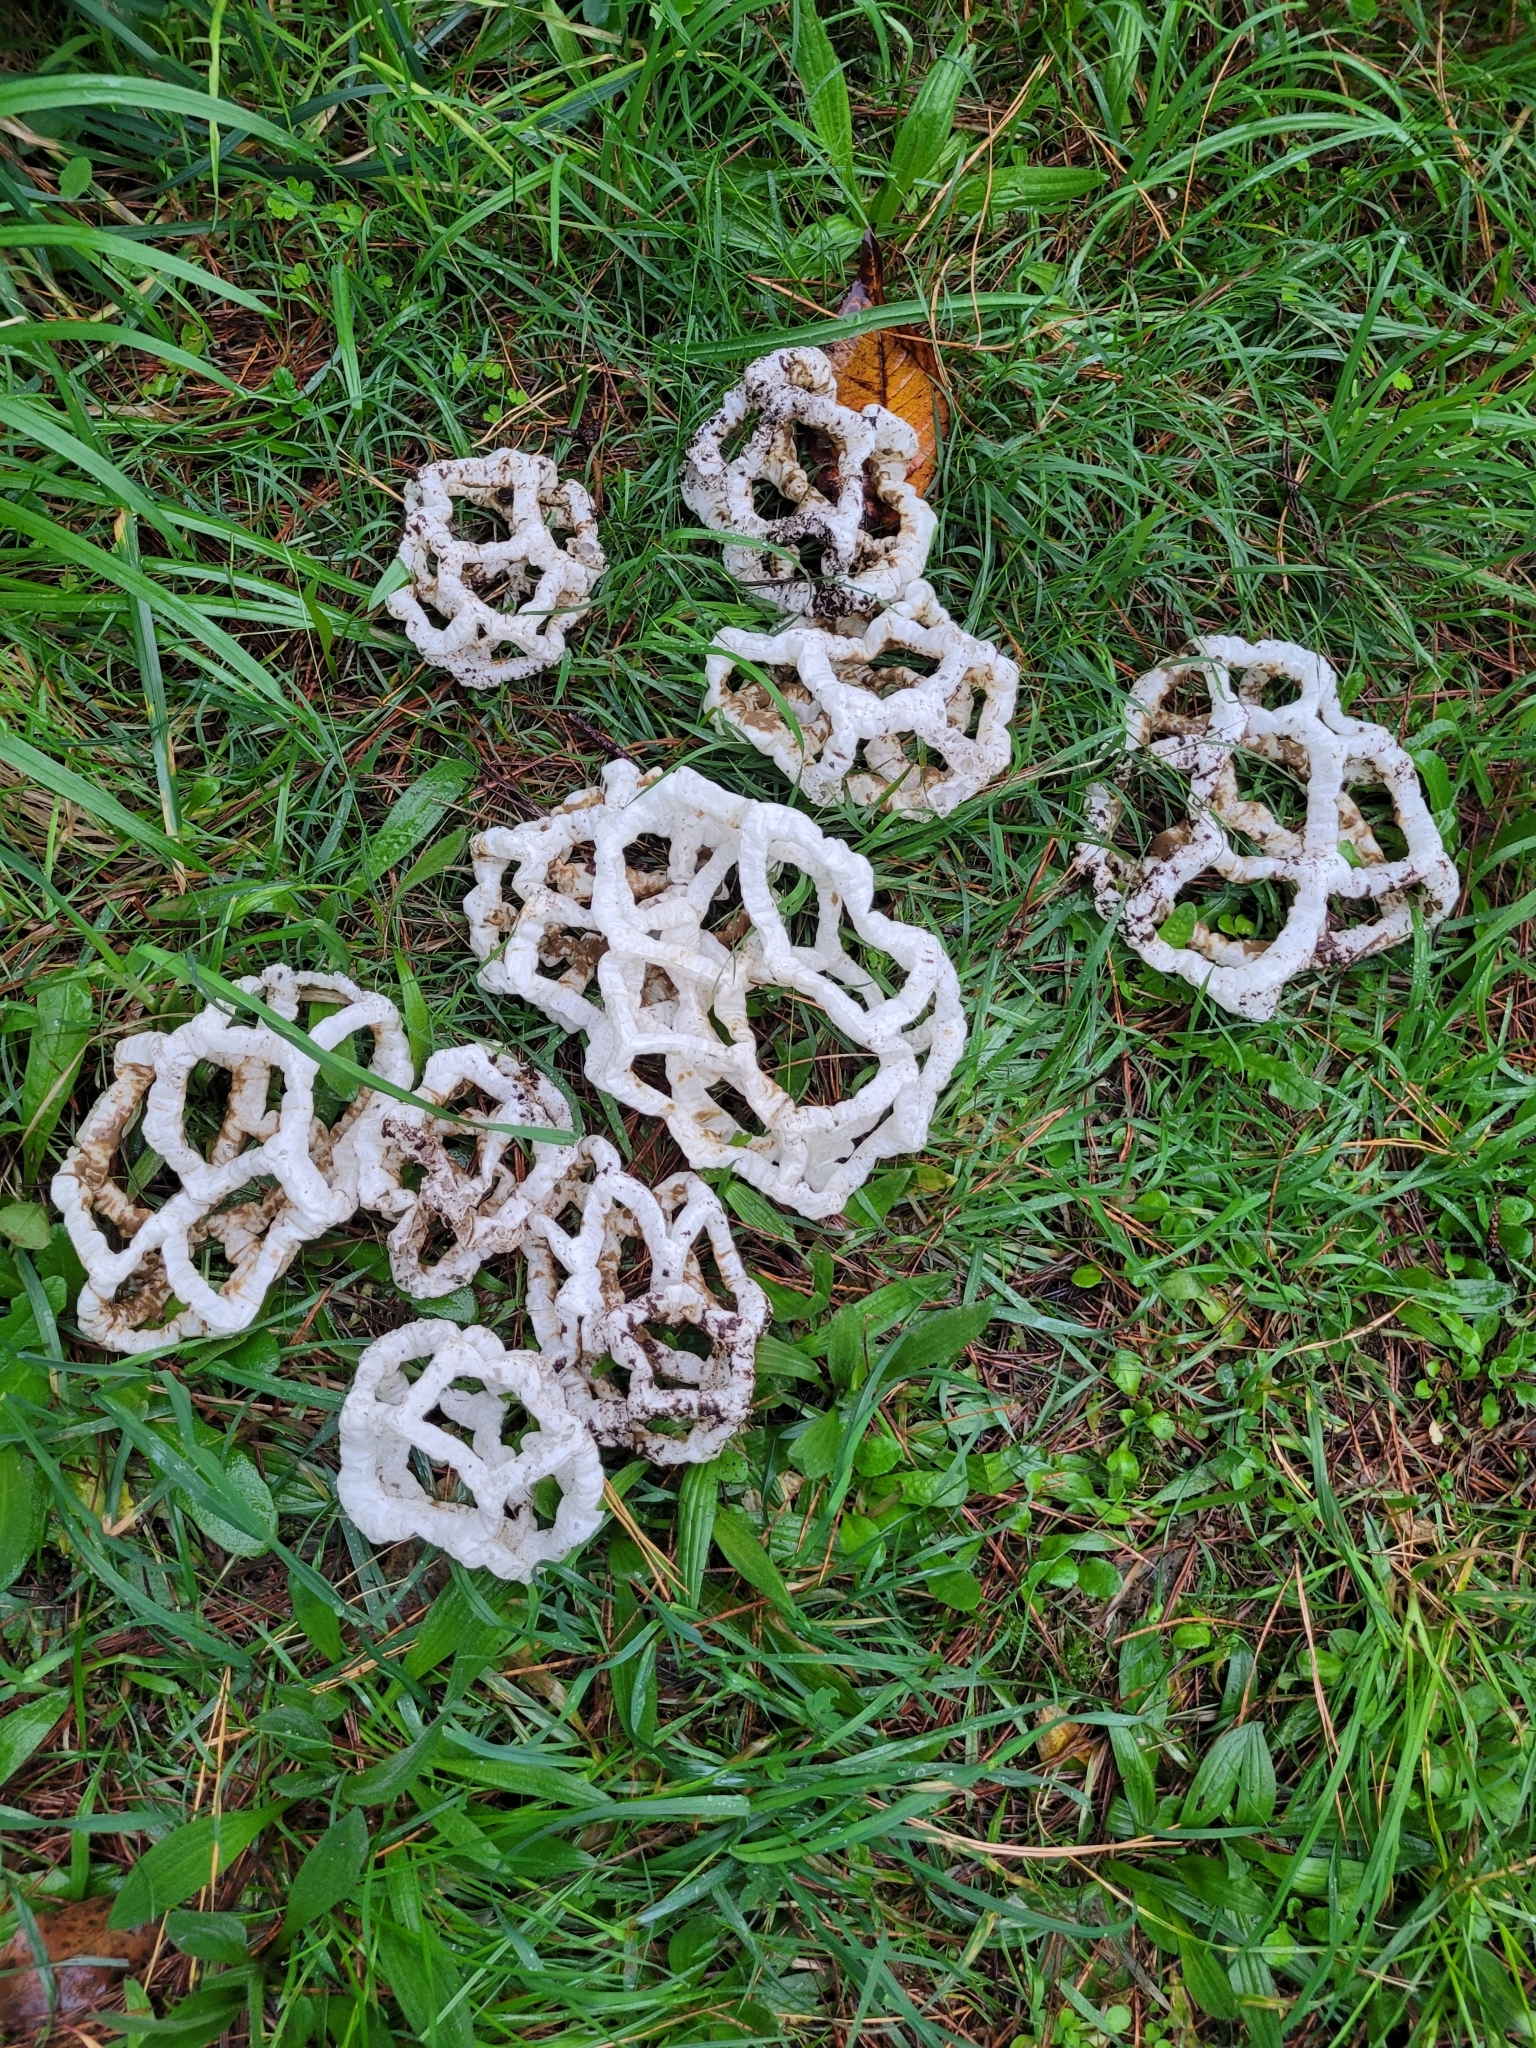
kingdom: Fungi
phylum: Basidiomycota
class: Agaricomycetes
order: Phallales
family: Phallaceae
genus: Ileodictyon
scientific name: Ileodictyon cibarium
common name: Basket fungus
